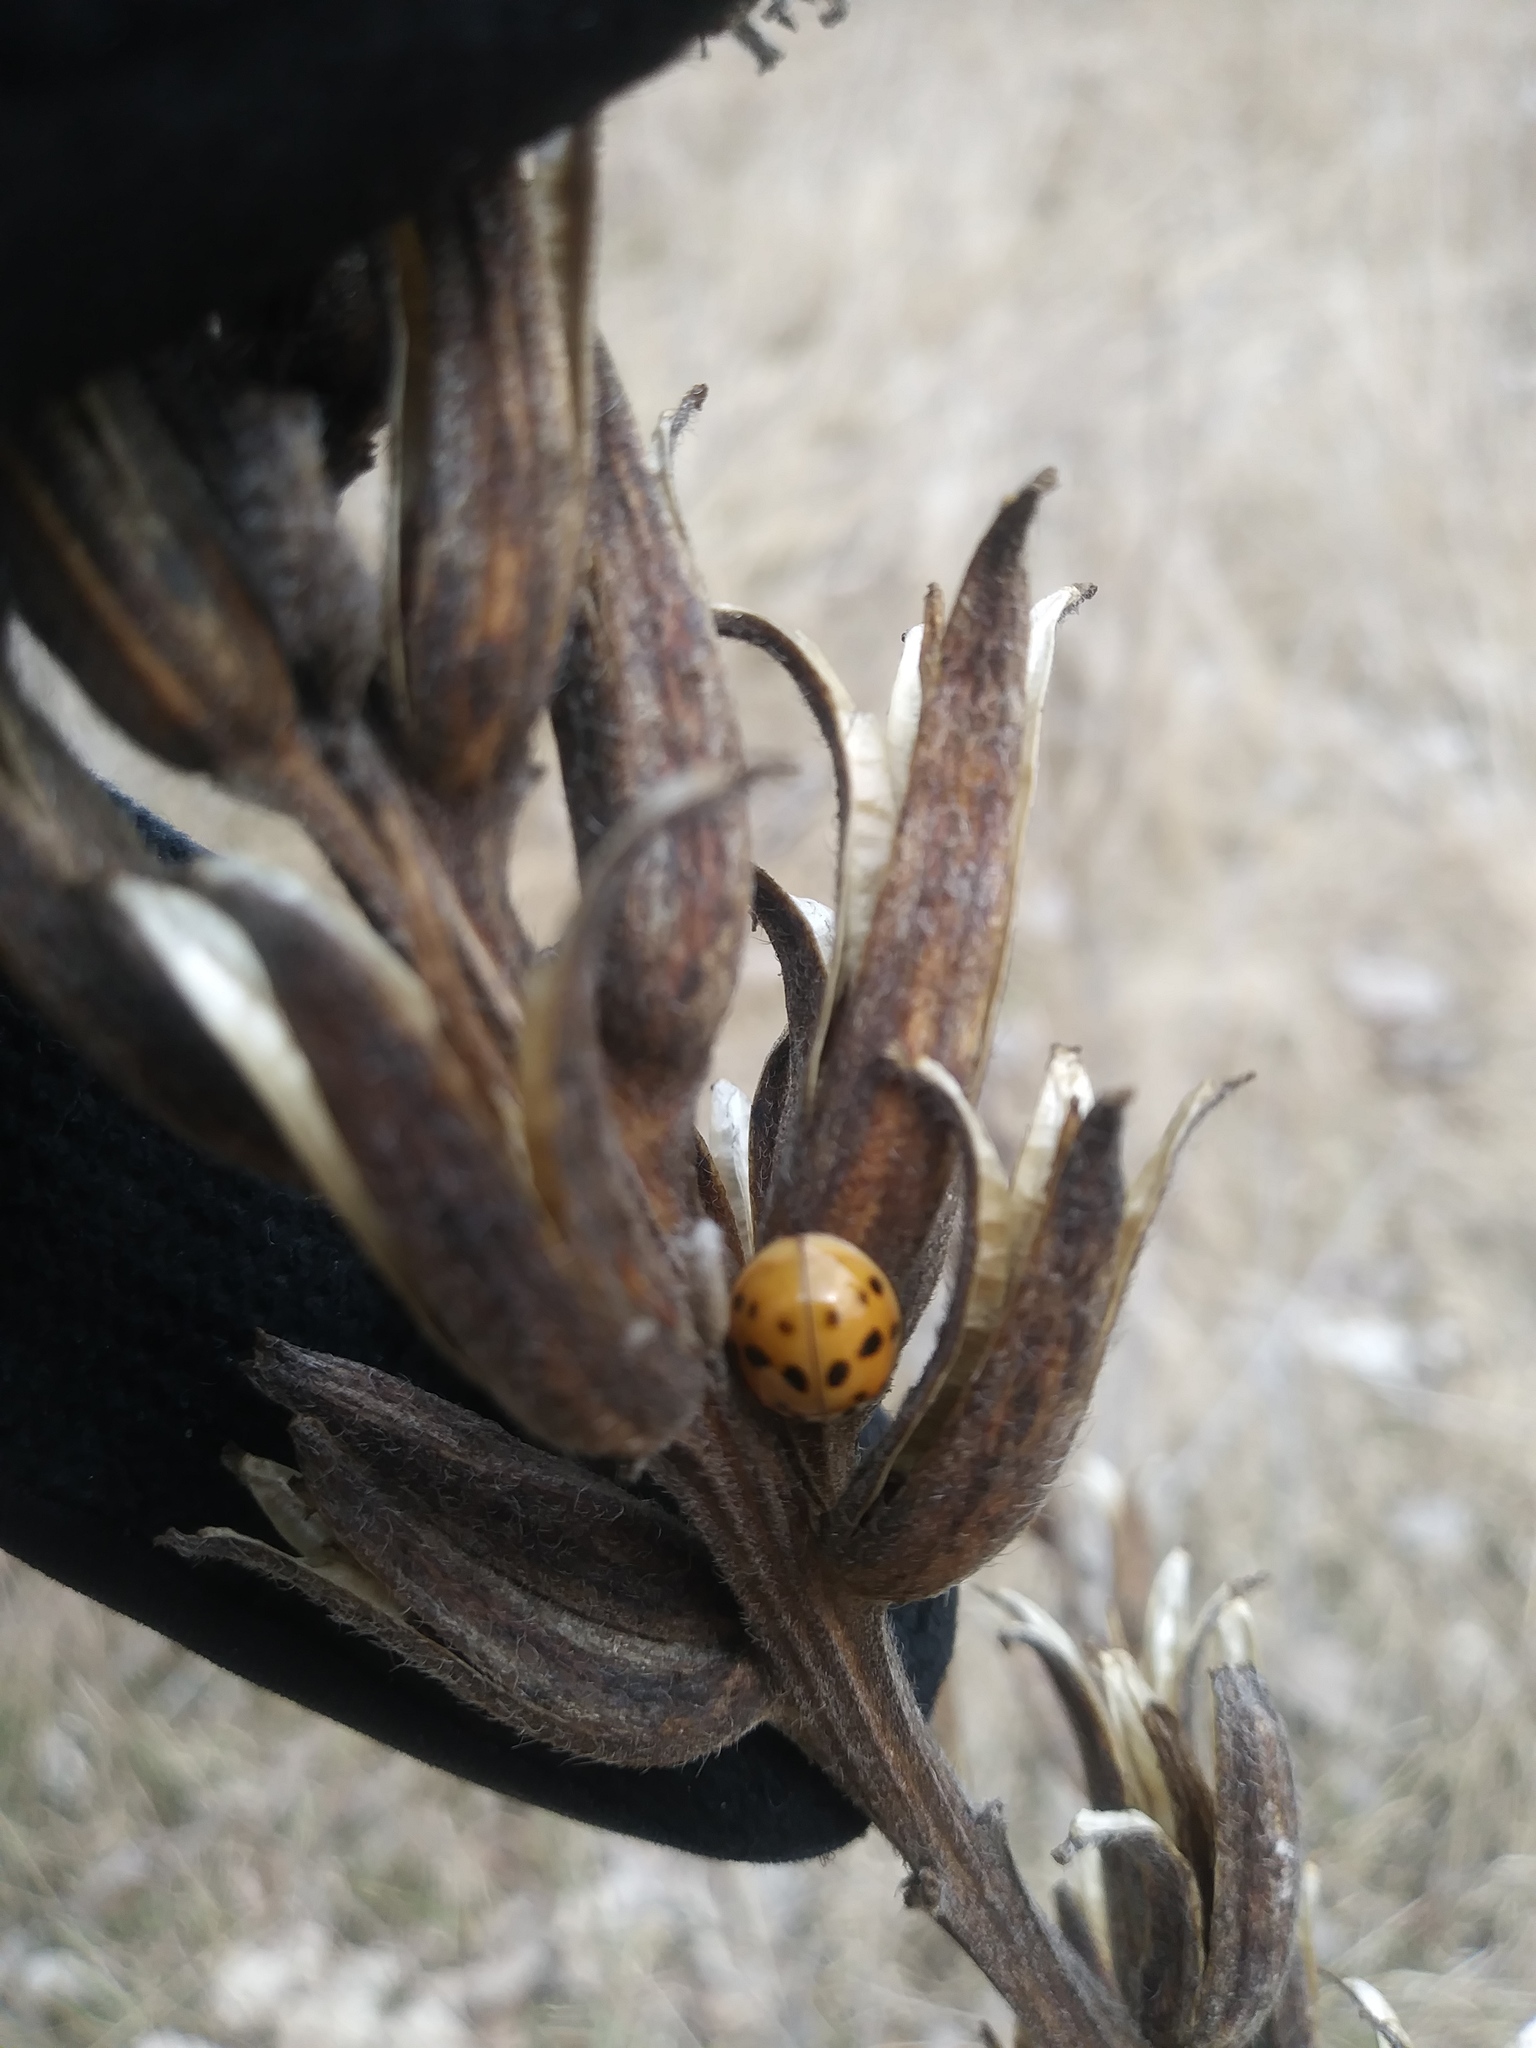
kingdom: Animalia
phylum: Arthropoda
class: Insecta
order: Coleoptera
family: Coccinellidae
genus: Harmonia
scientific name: Harmonia axyridis
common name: Harlequin ladybird
